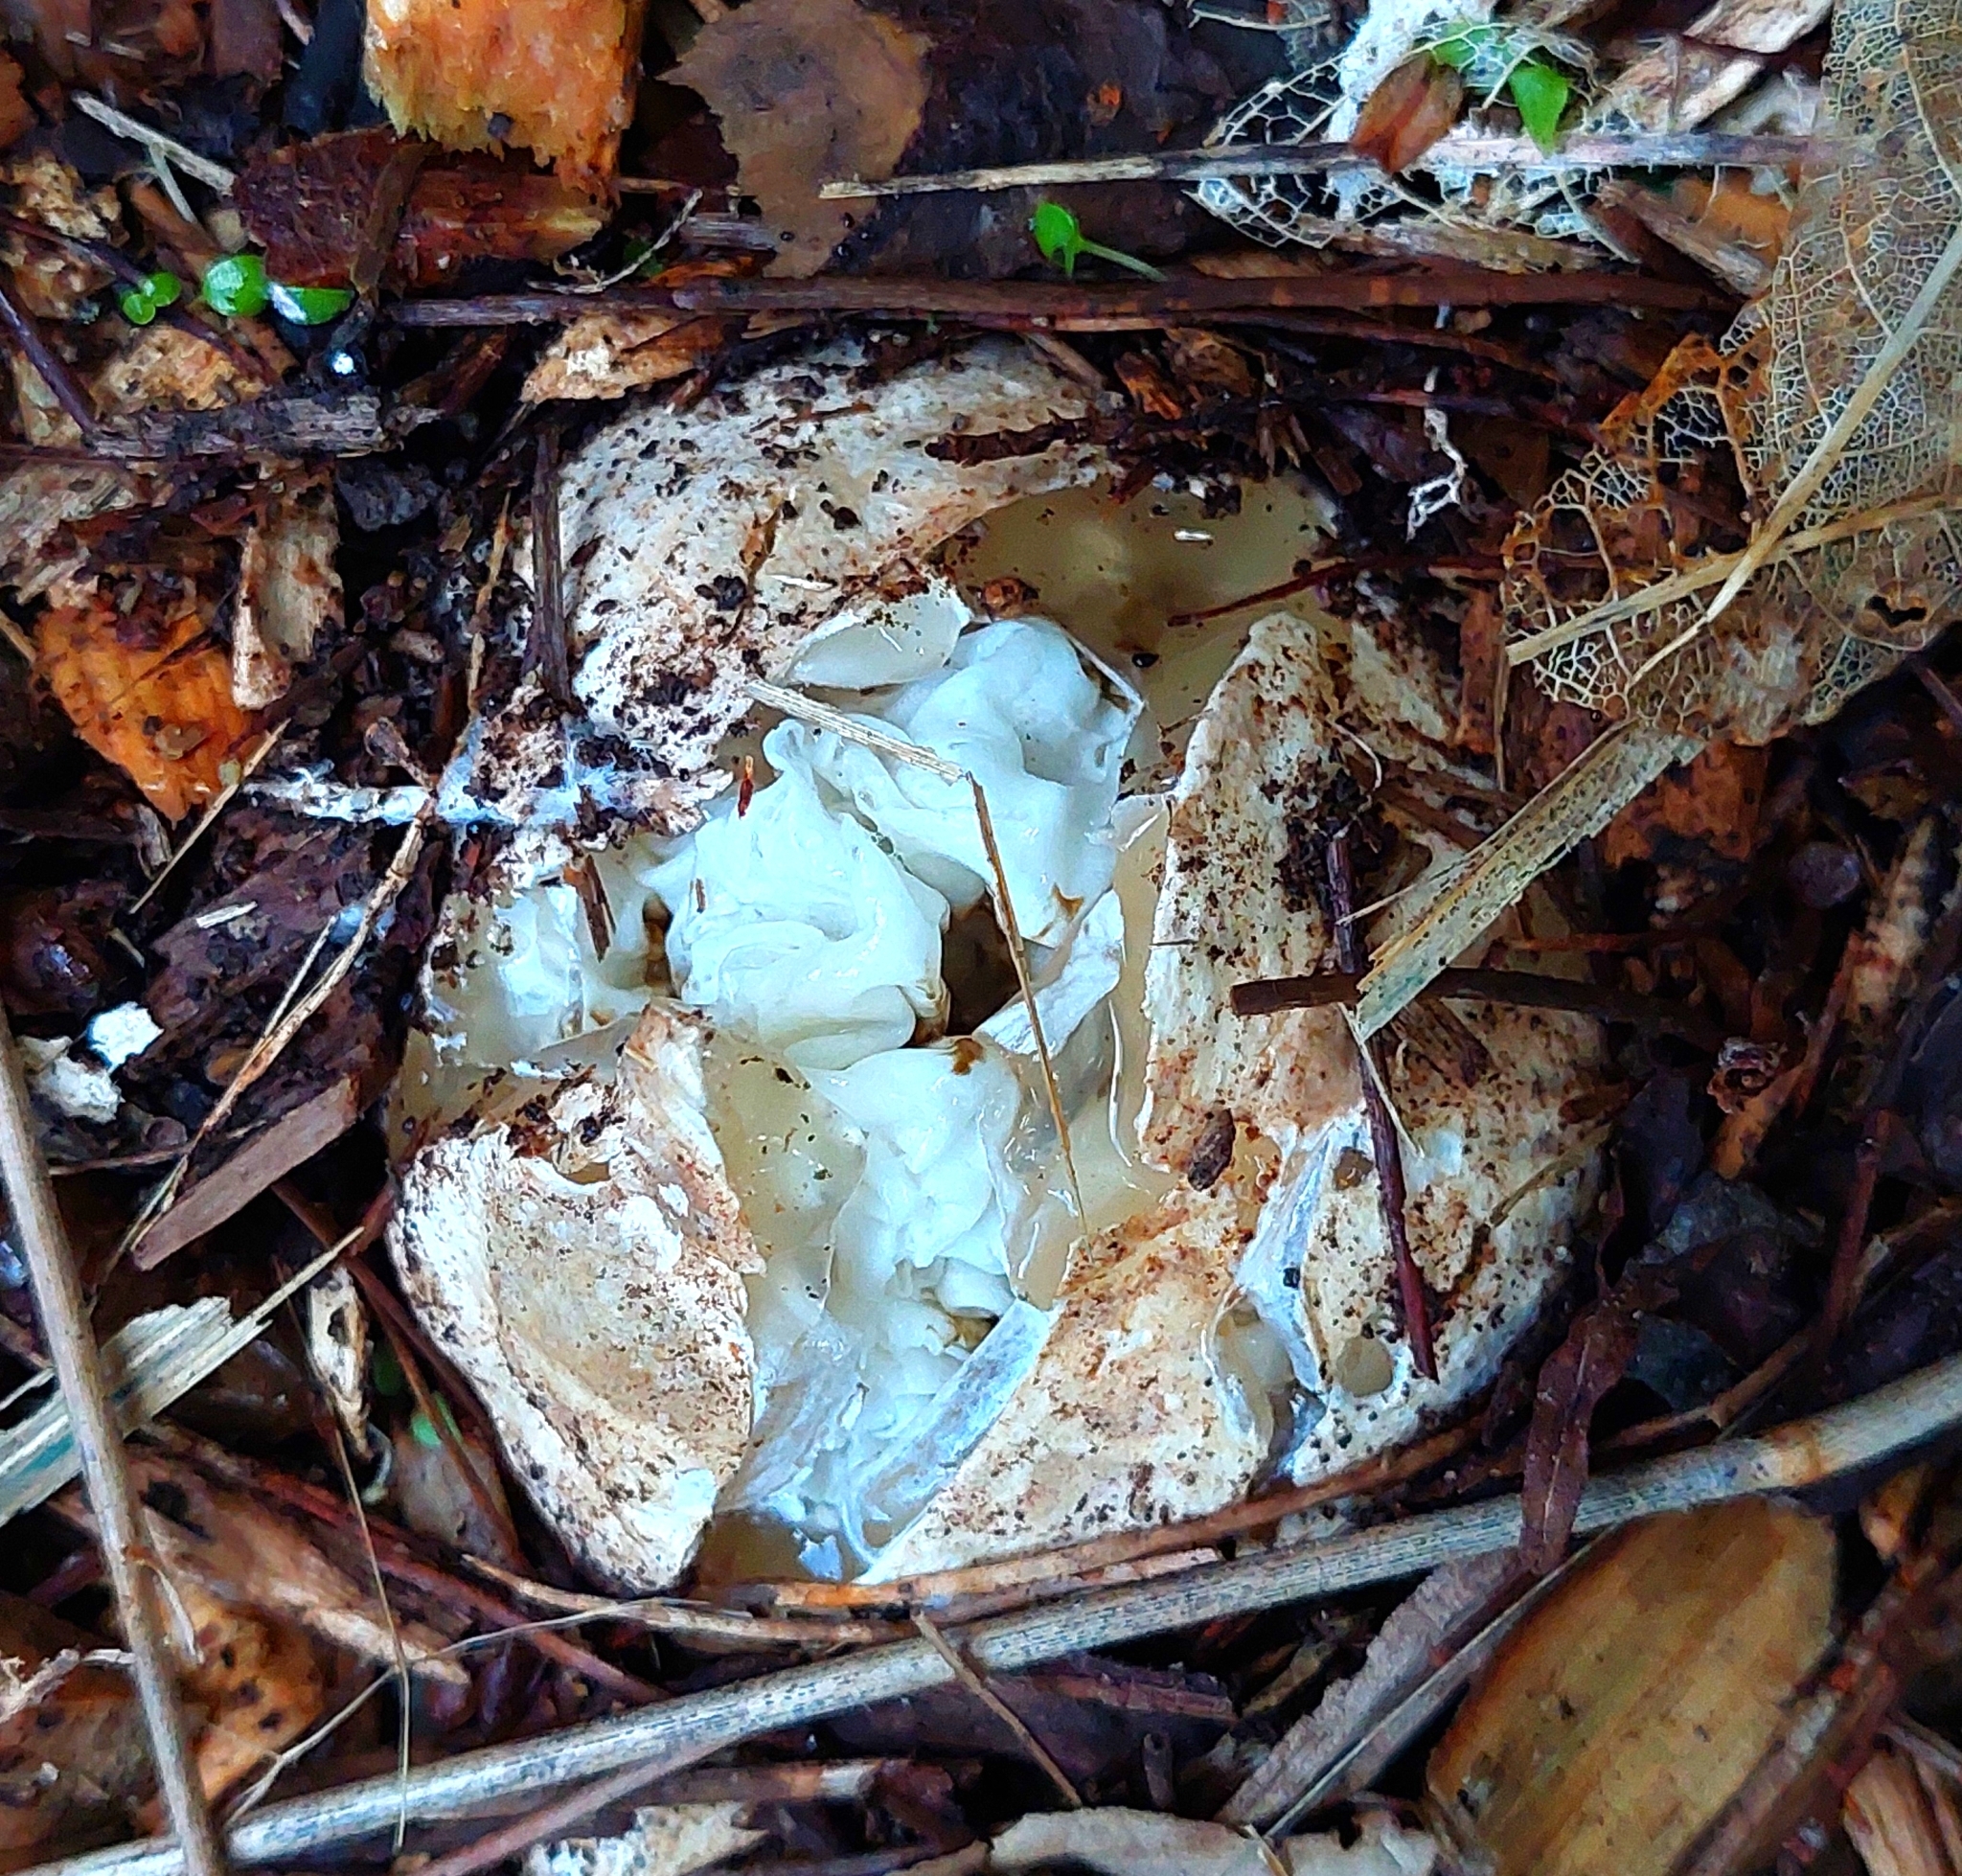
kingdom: Fungi
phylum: Basidiomycota
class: Agaricomycetes
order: Phallales
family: Phallaceae
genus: Ileodictyon
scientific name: Ileodictyon cibarium
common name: Basket fungus
